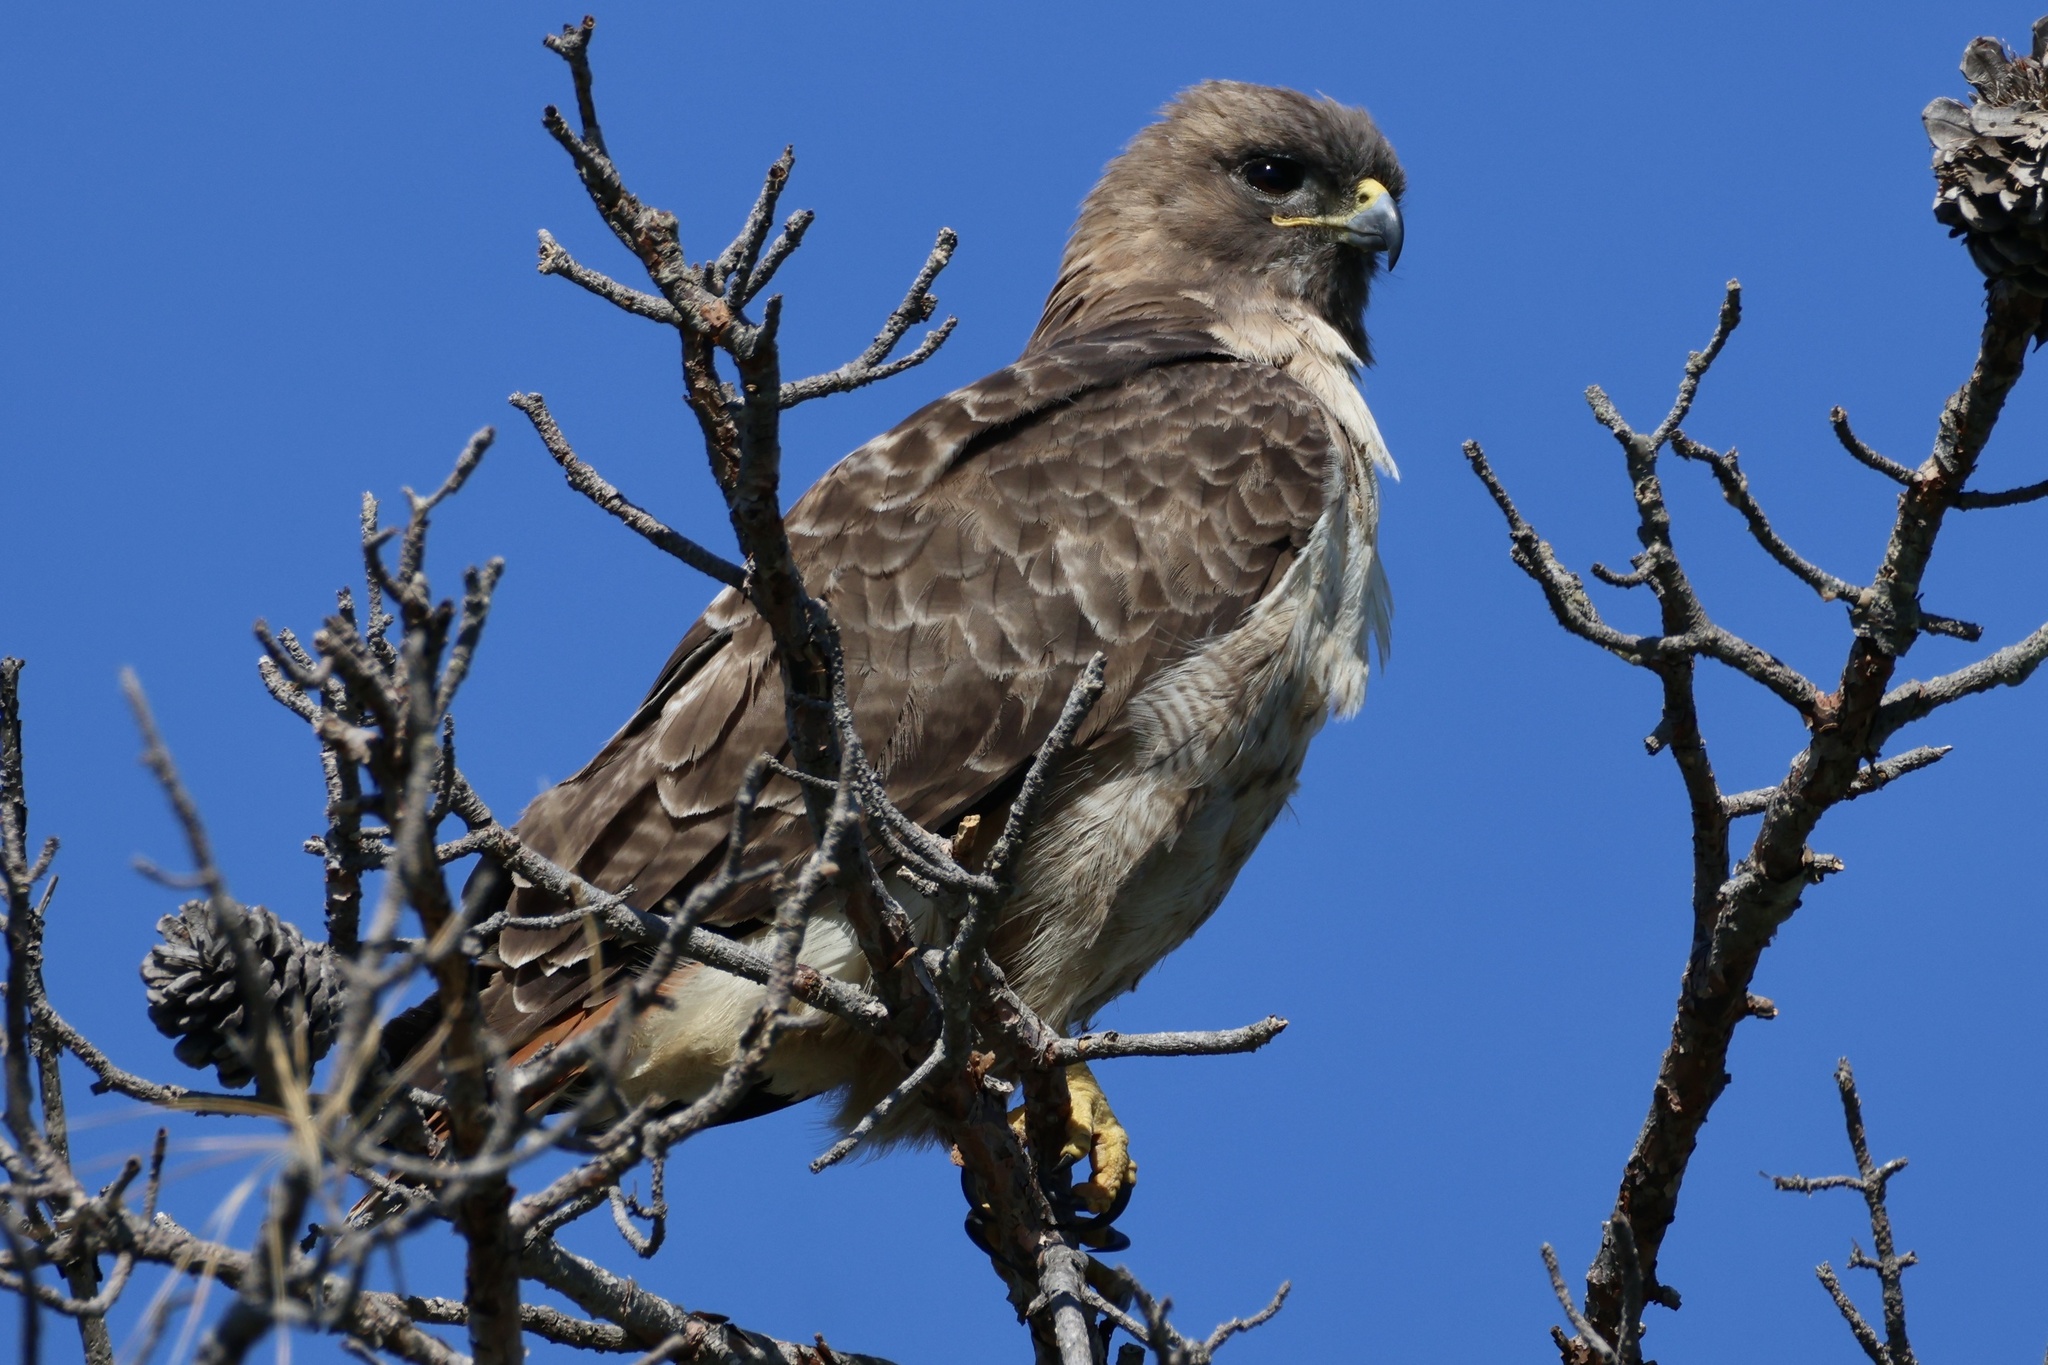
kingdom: Animalia
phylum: Chordata
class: Aves
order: Accipitriformes
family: Accipitridae
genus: Buteo
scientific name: Buteo jamaicensis
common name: Red-tailed hawk
